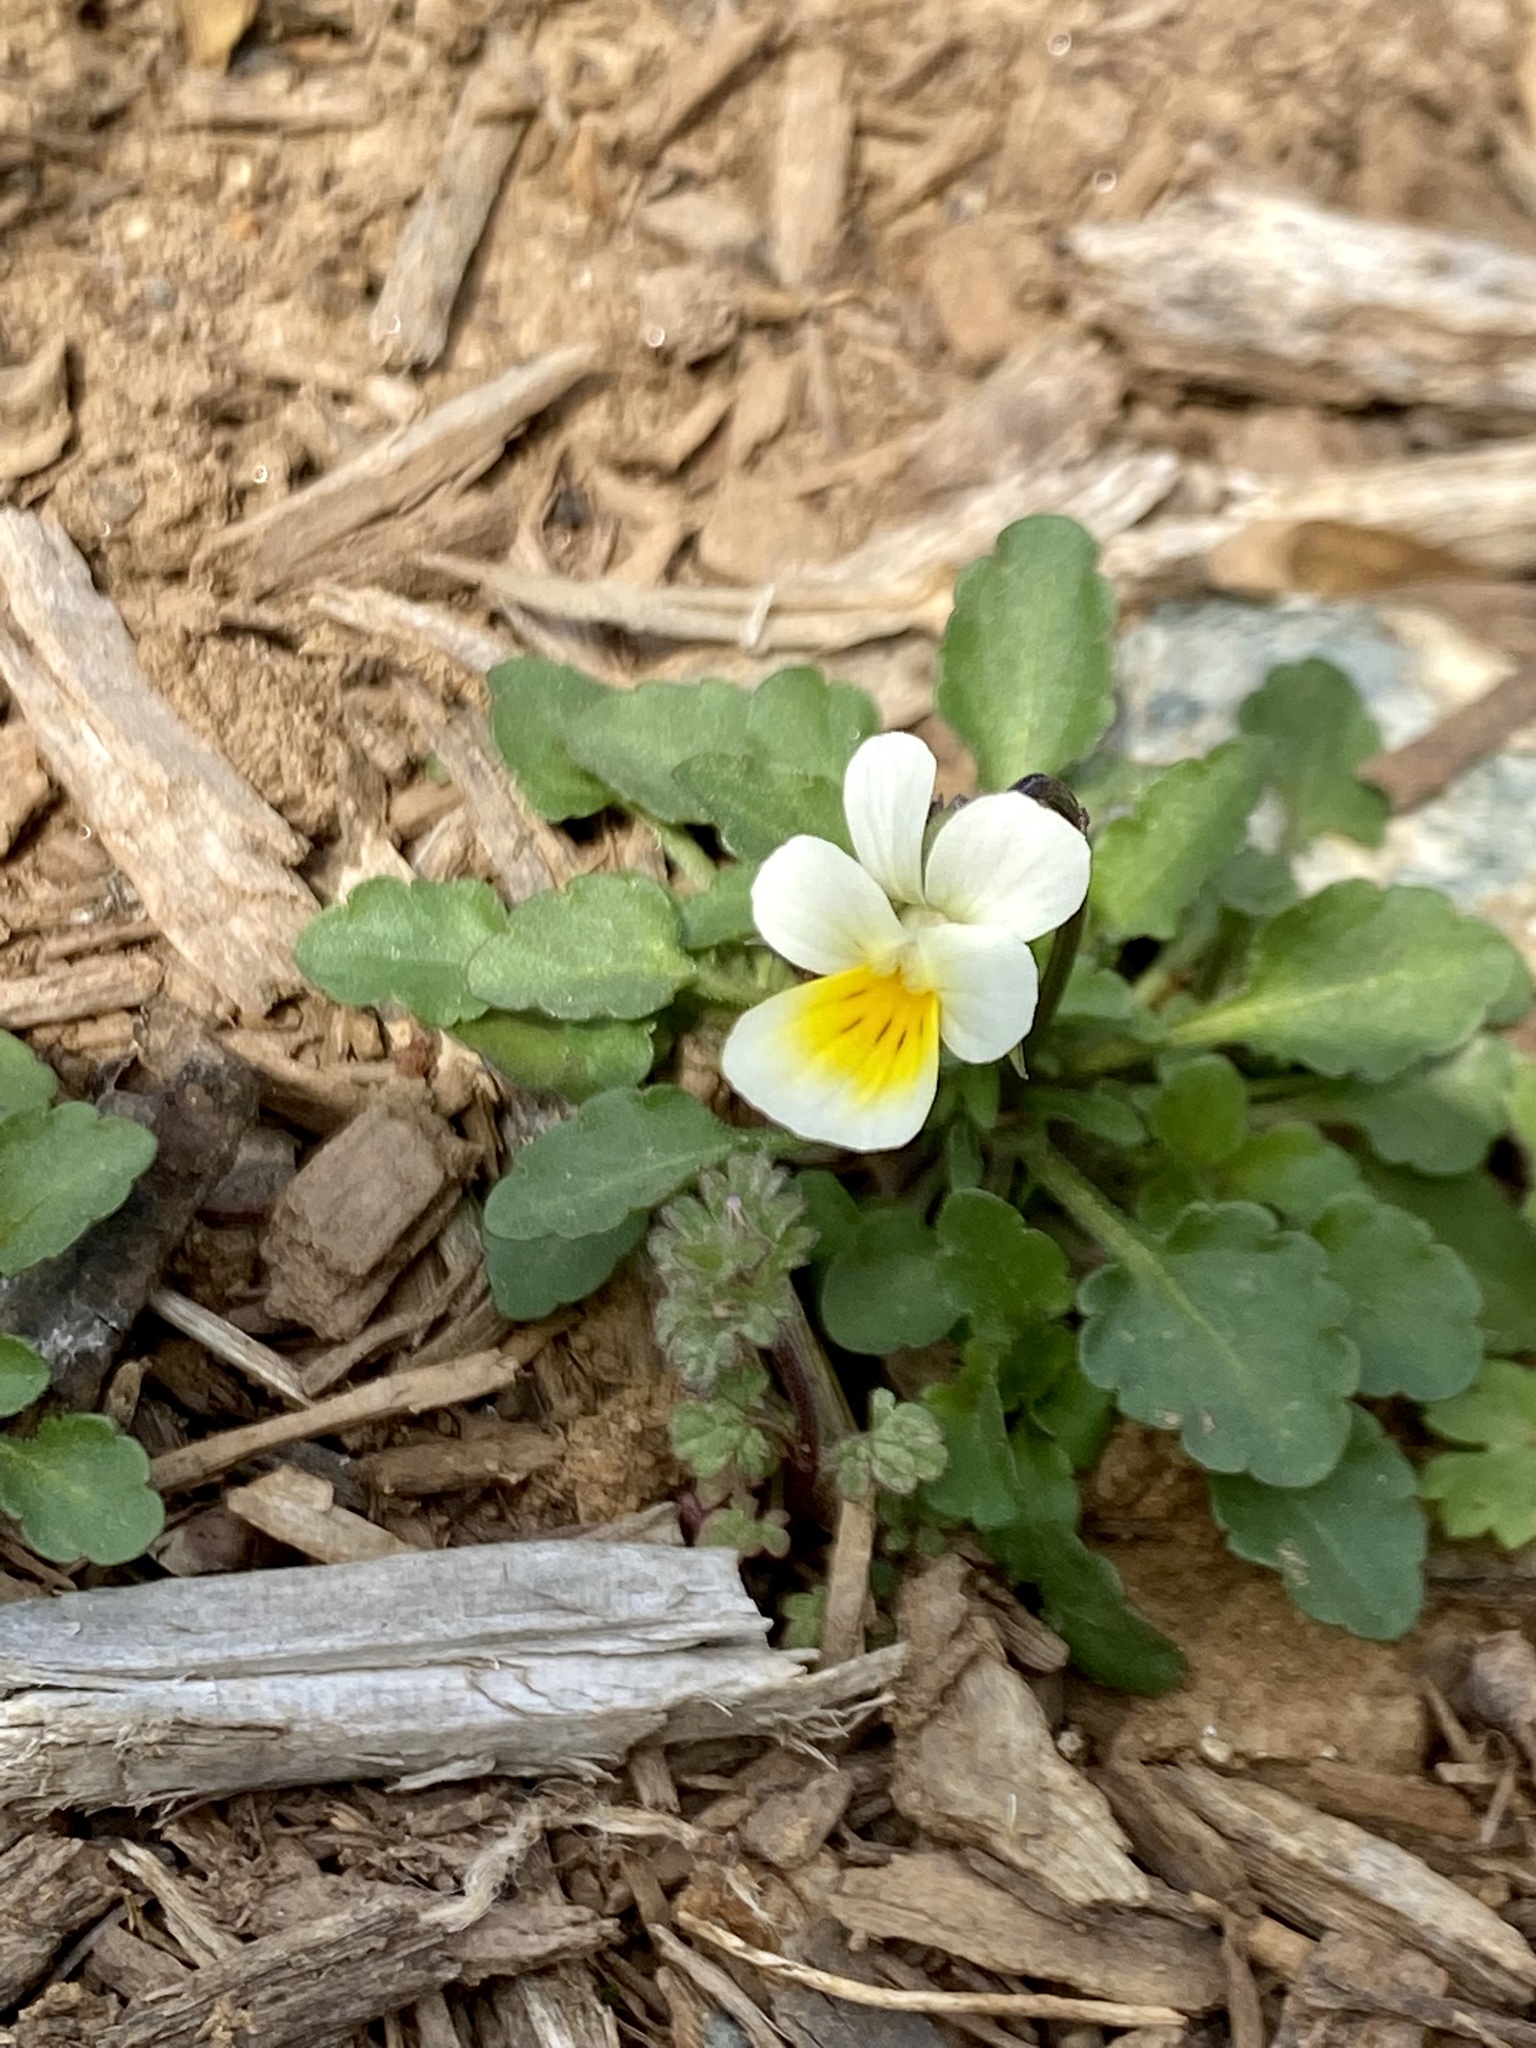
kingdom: Plantae
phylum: Tracheophyta
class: Magnoliopsida
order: Malpighiales
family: Violaceae
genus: Viola
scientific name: Viola arvensis
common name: Field pansy
